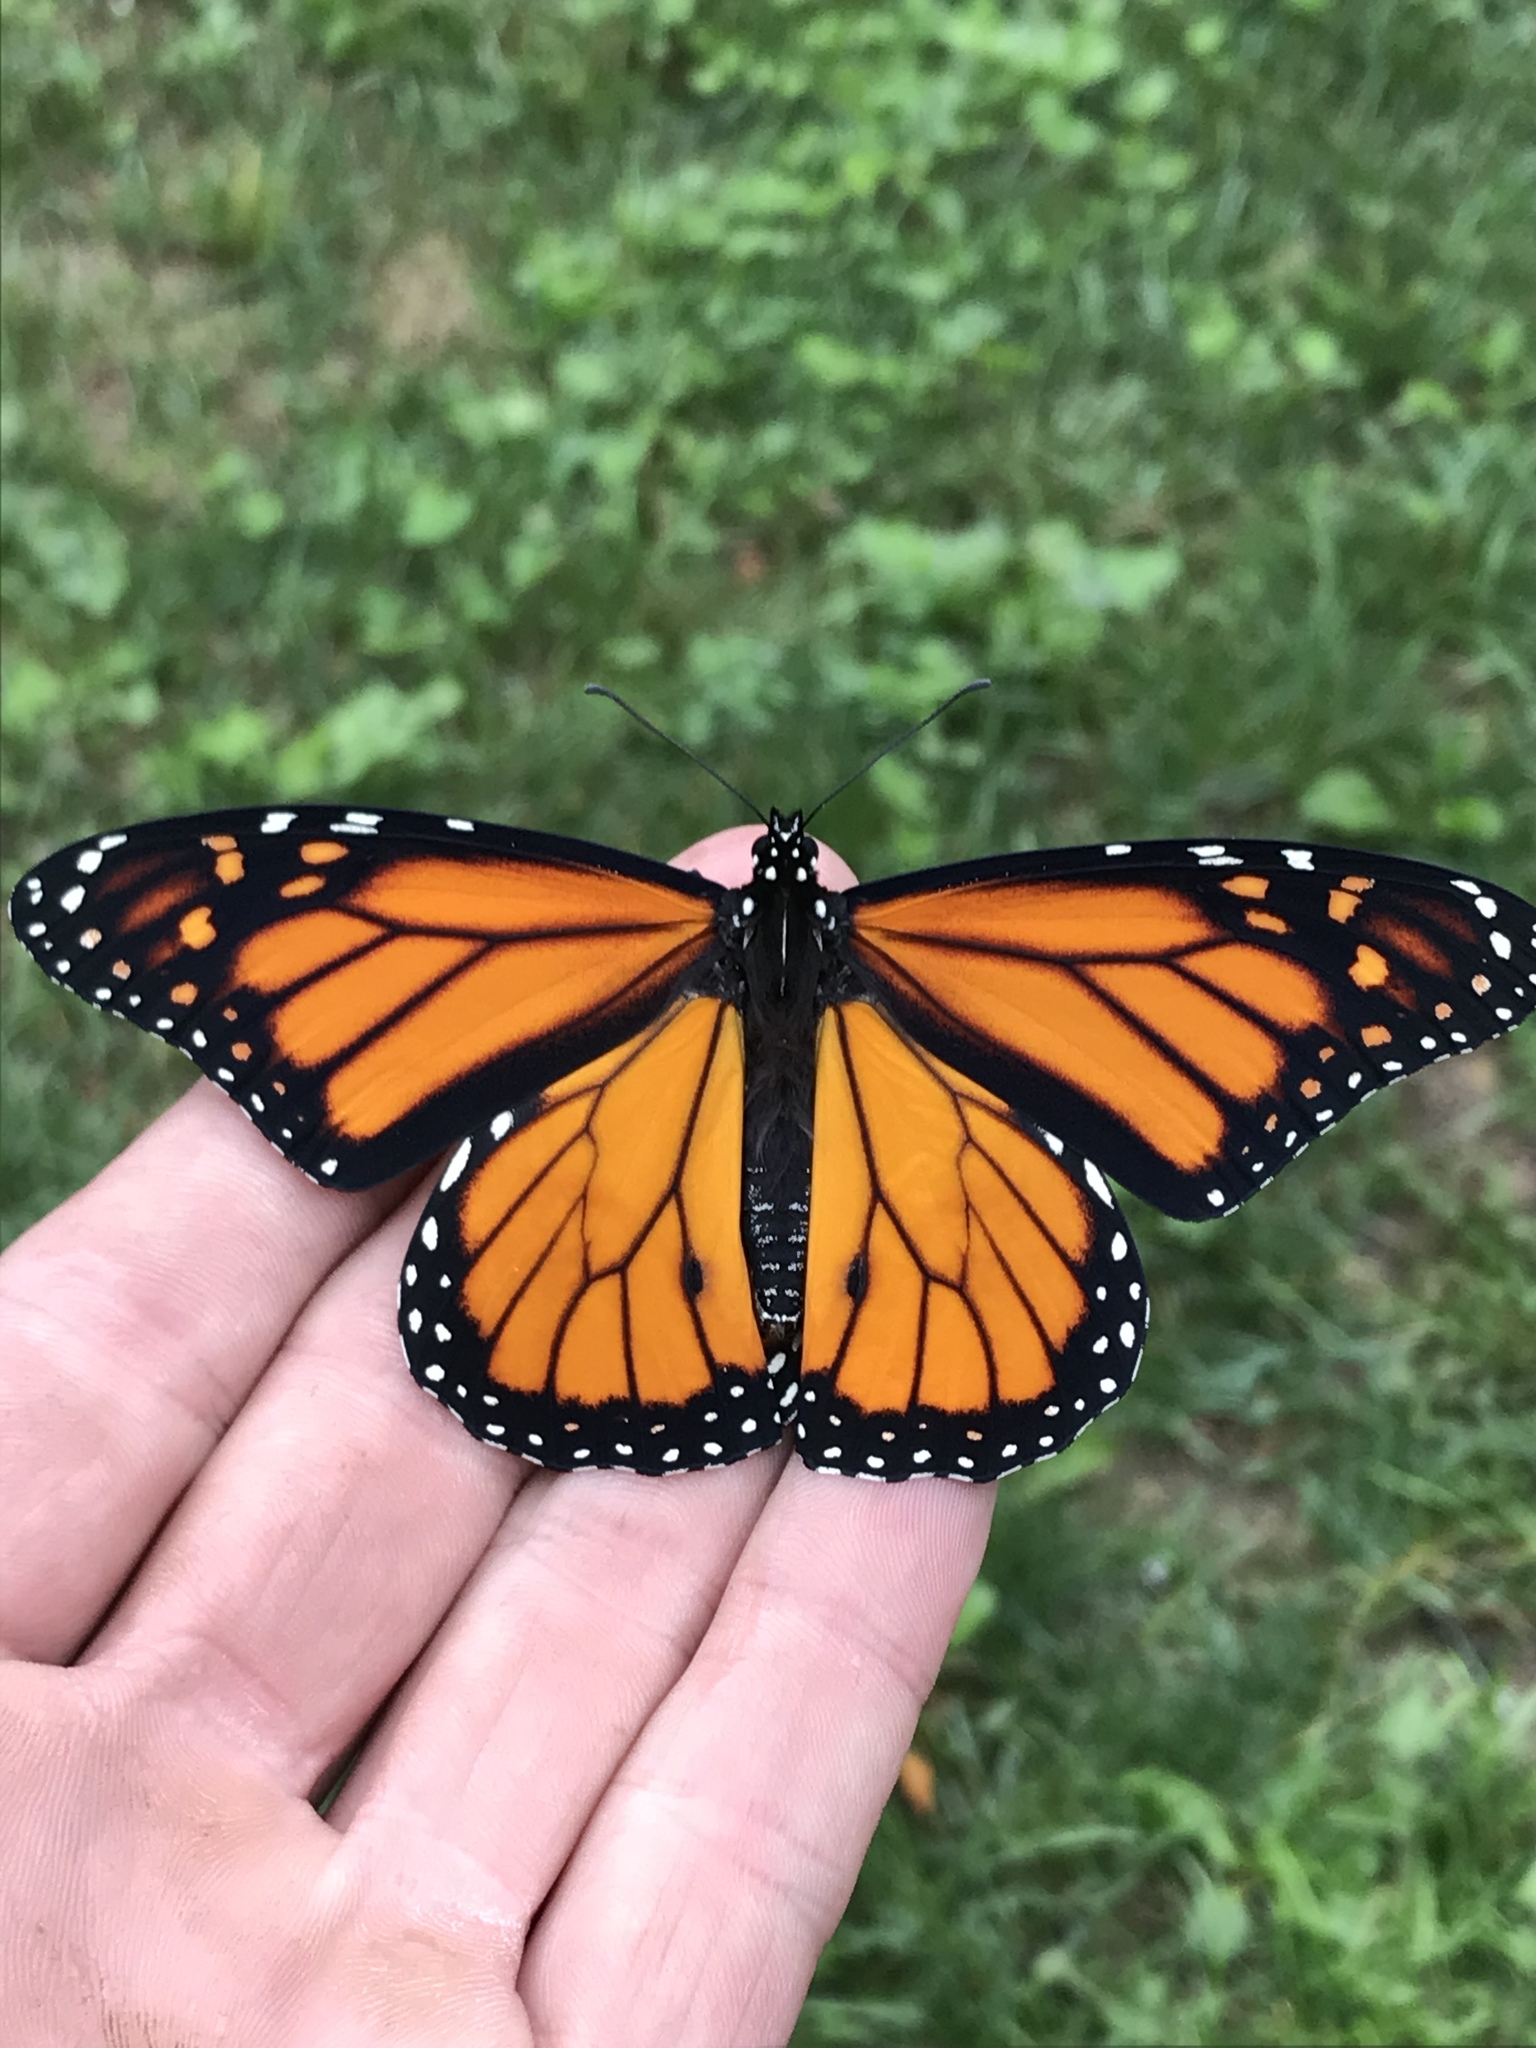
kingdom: Animalia
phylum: Arthropoda
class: Insecta
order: Lepidoptera
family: Nymphalidae
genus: Danaus
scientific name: Danaus plexippus
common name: Monarch
